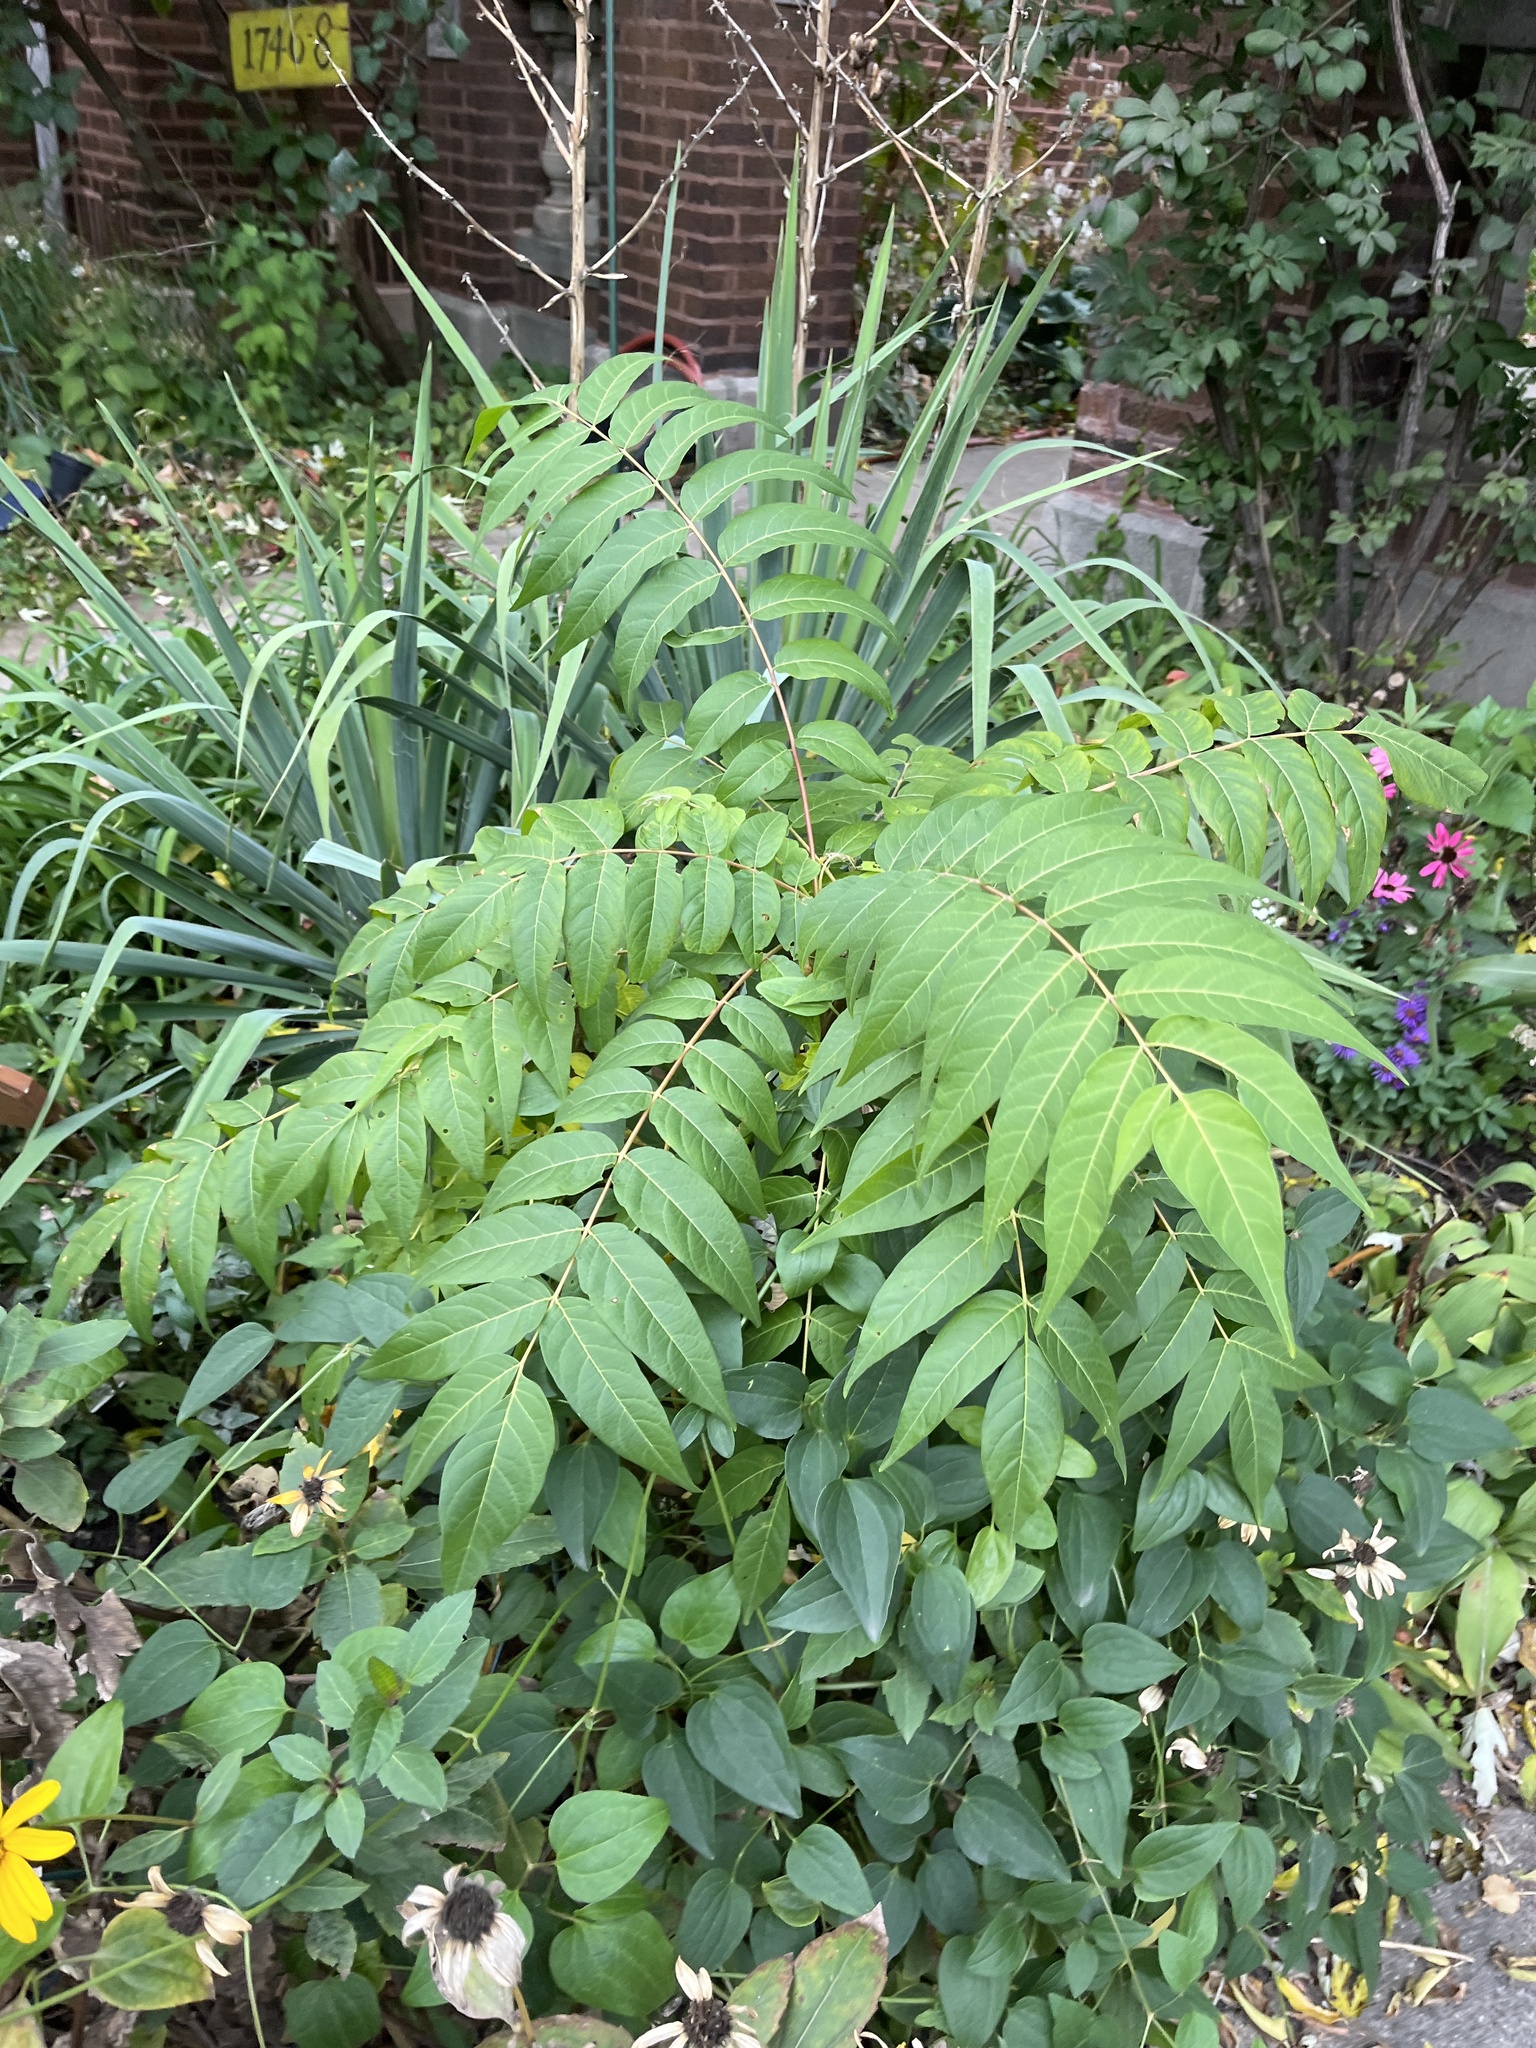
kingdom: Plantae
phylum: Tracheophyta
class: Magnoliopsida
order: Sapindales
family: Simaroubaceae
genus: Ailanthus
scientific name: Ailanthus altissima
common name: Tree-of-heaven
